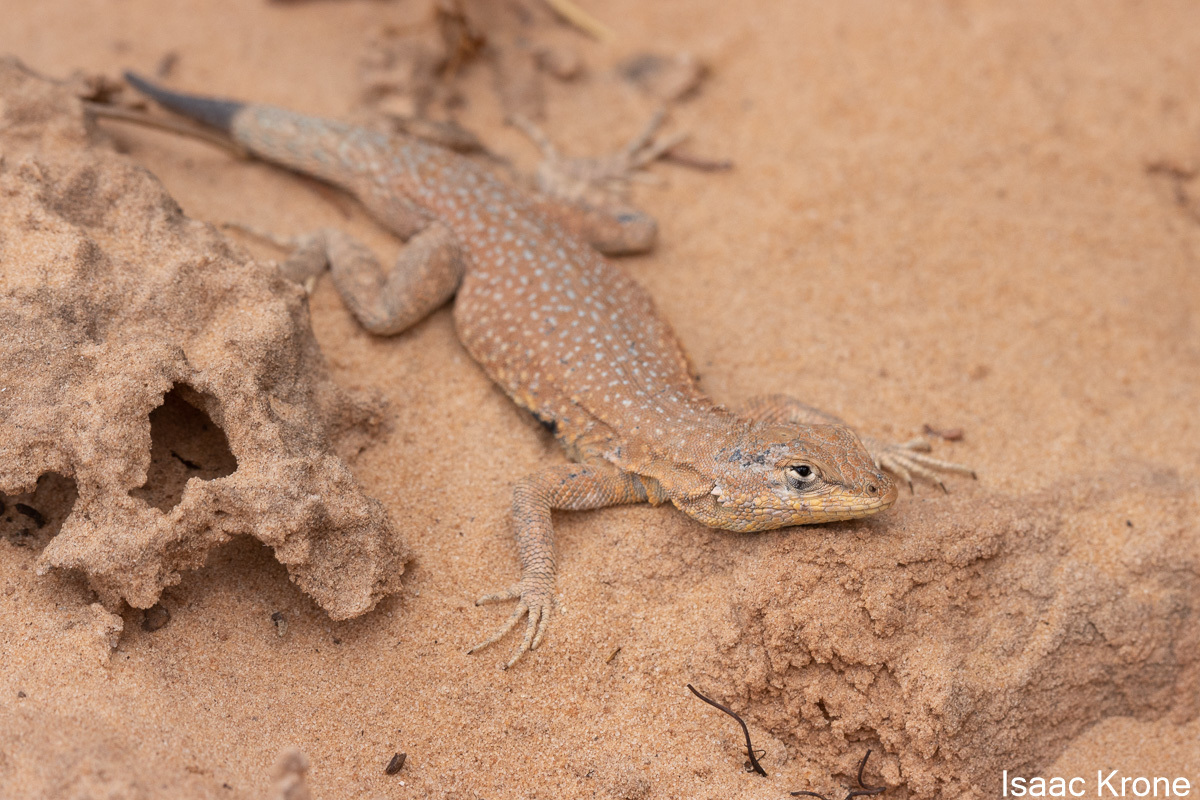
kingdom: Animalia
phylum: Chordata
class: Squamata
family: Phrynosomatidae
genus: Uta
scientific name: Uta stansburiana
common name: Side-blotched lizard
